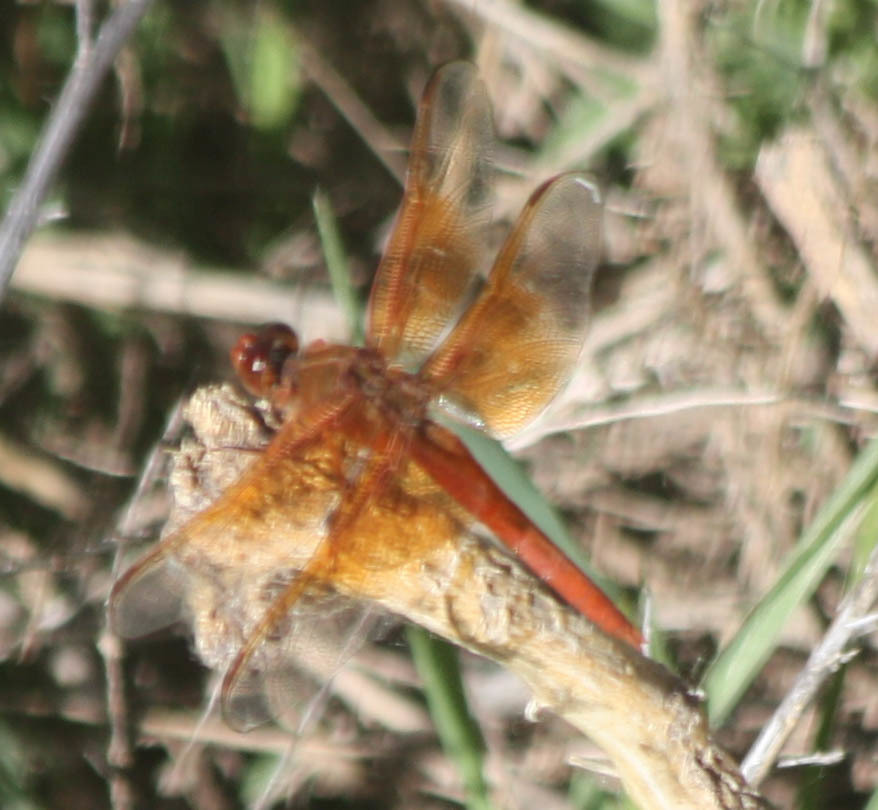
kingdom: Animalia
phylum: Arthropoda
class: Insecta
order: Odonata
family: Libellulidae
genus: Libellula
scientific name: Libellula saturata
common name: Flame skimmer
